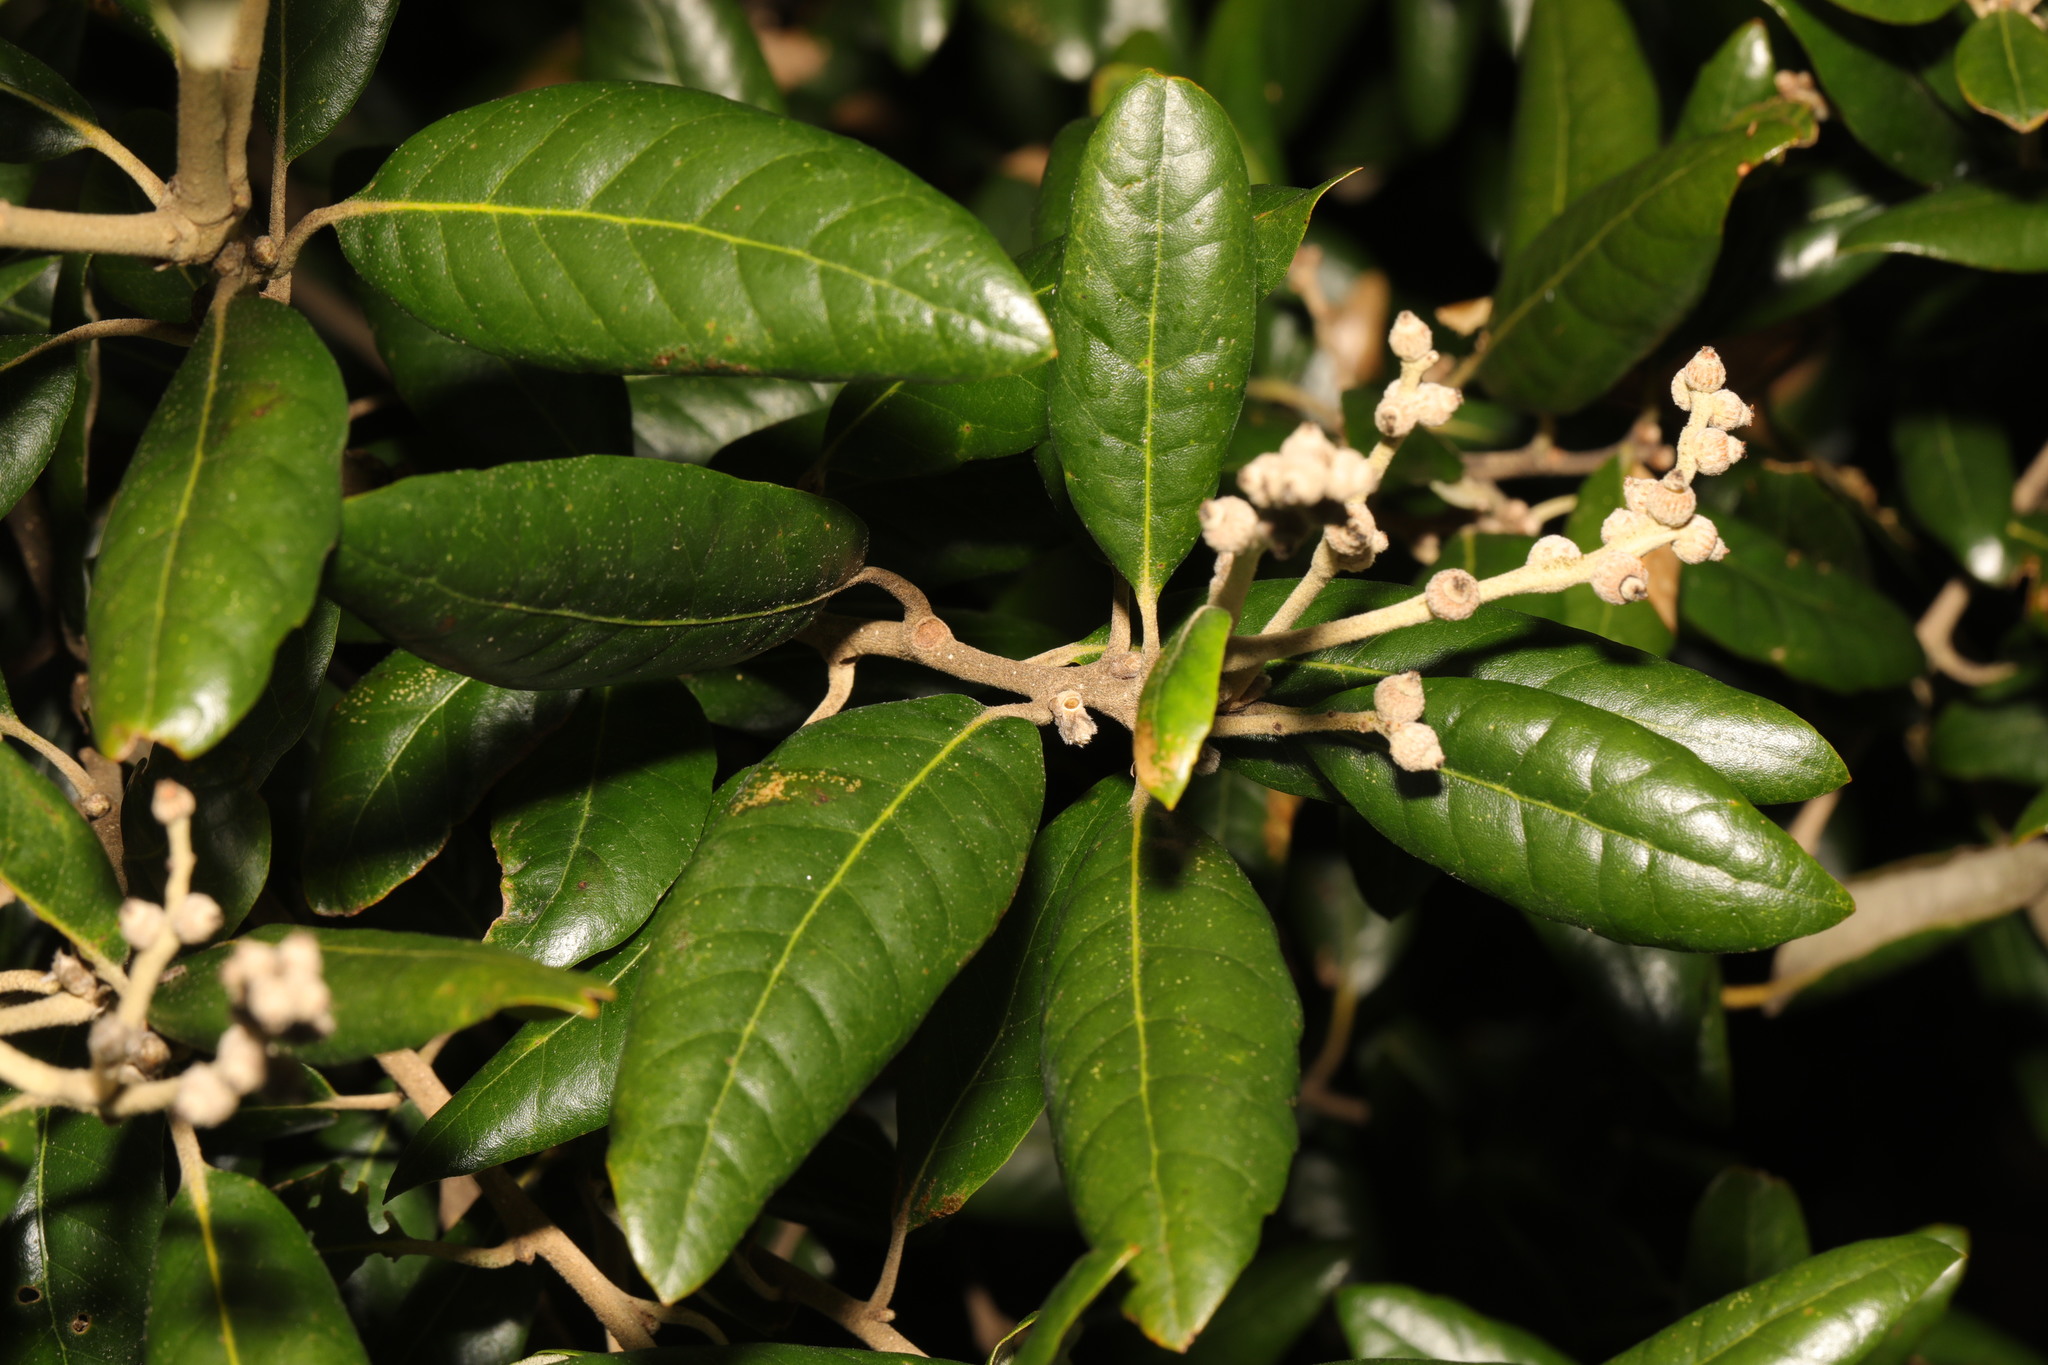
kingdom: Plantae
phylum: Tracheophyta
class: Magnoliopsida
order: Fagales
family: Fagaceae
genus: Quercus
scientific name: Quercus ilex
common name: Evergreen oak
